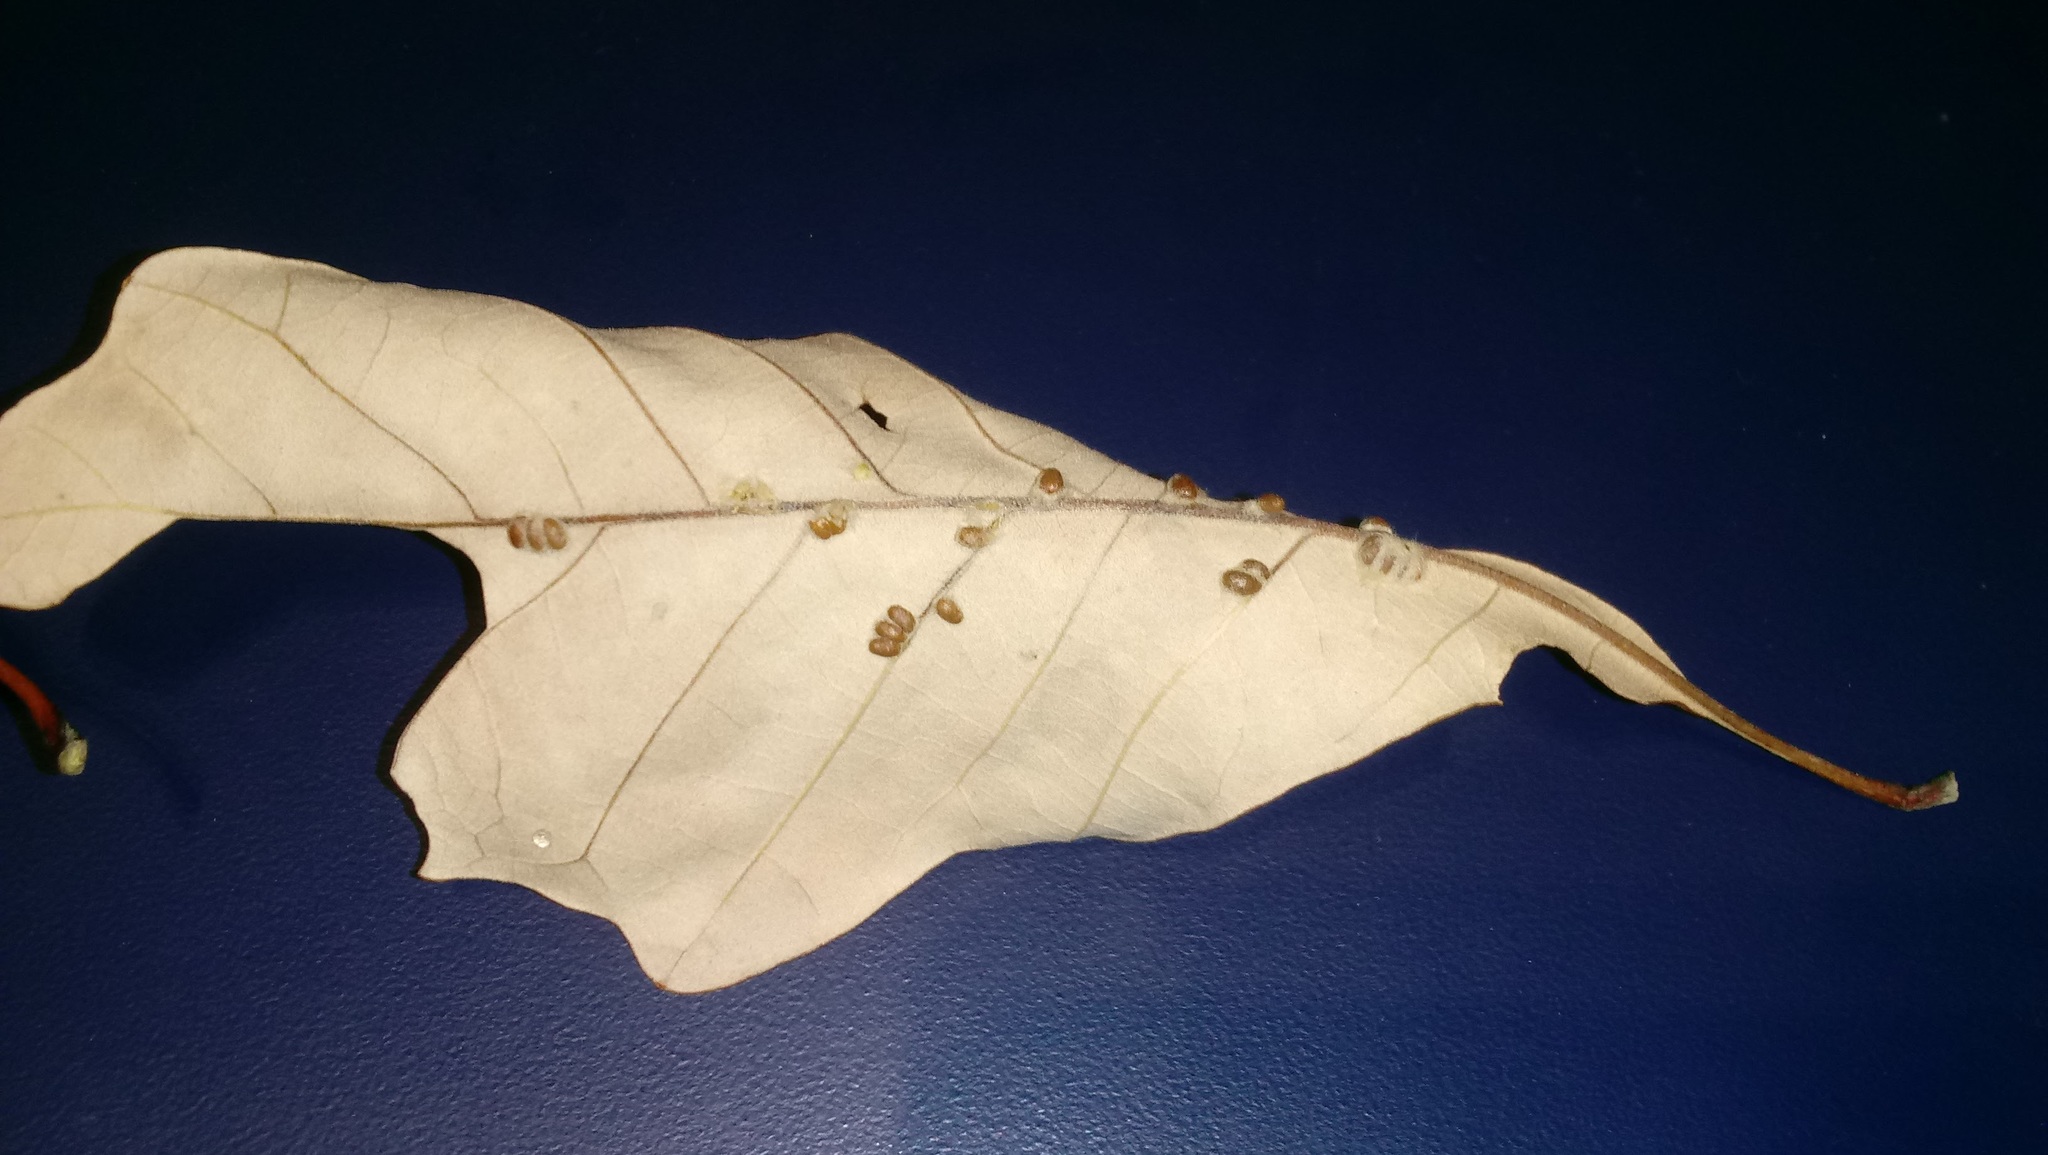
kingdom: Animalia
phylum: Arthropoda
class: Insecta
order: Hymenoptera
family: Cynipidae
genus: Andricus
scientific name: Andricus Druon ignotum
